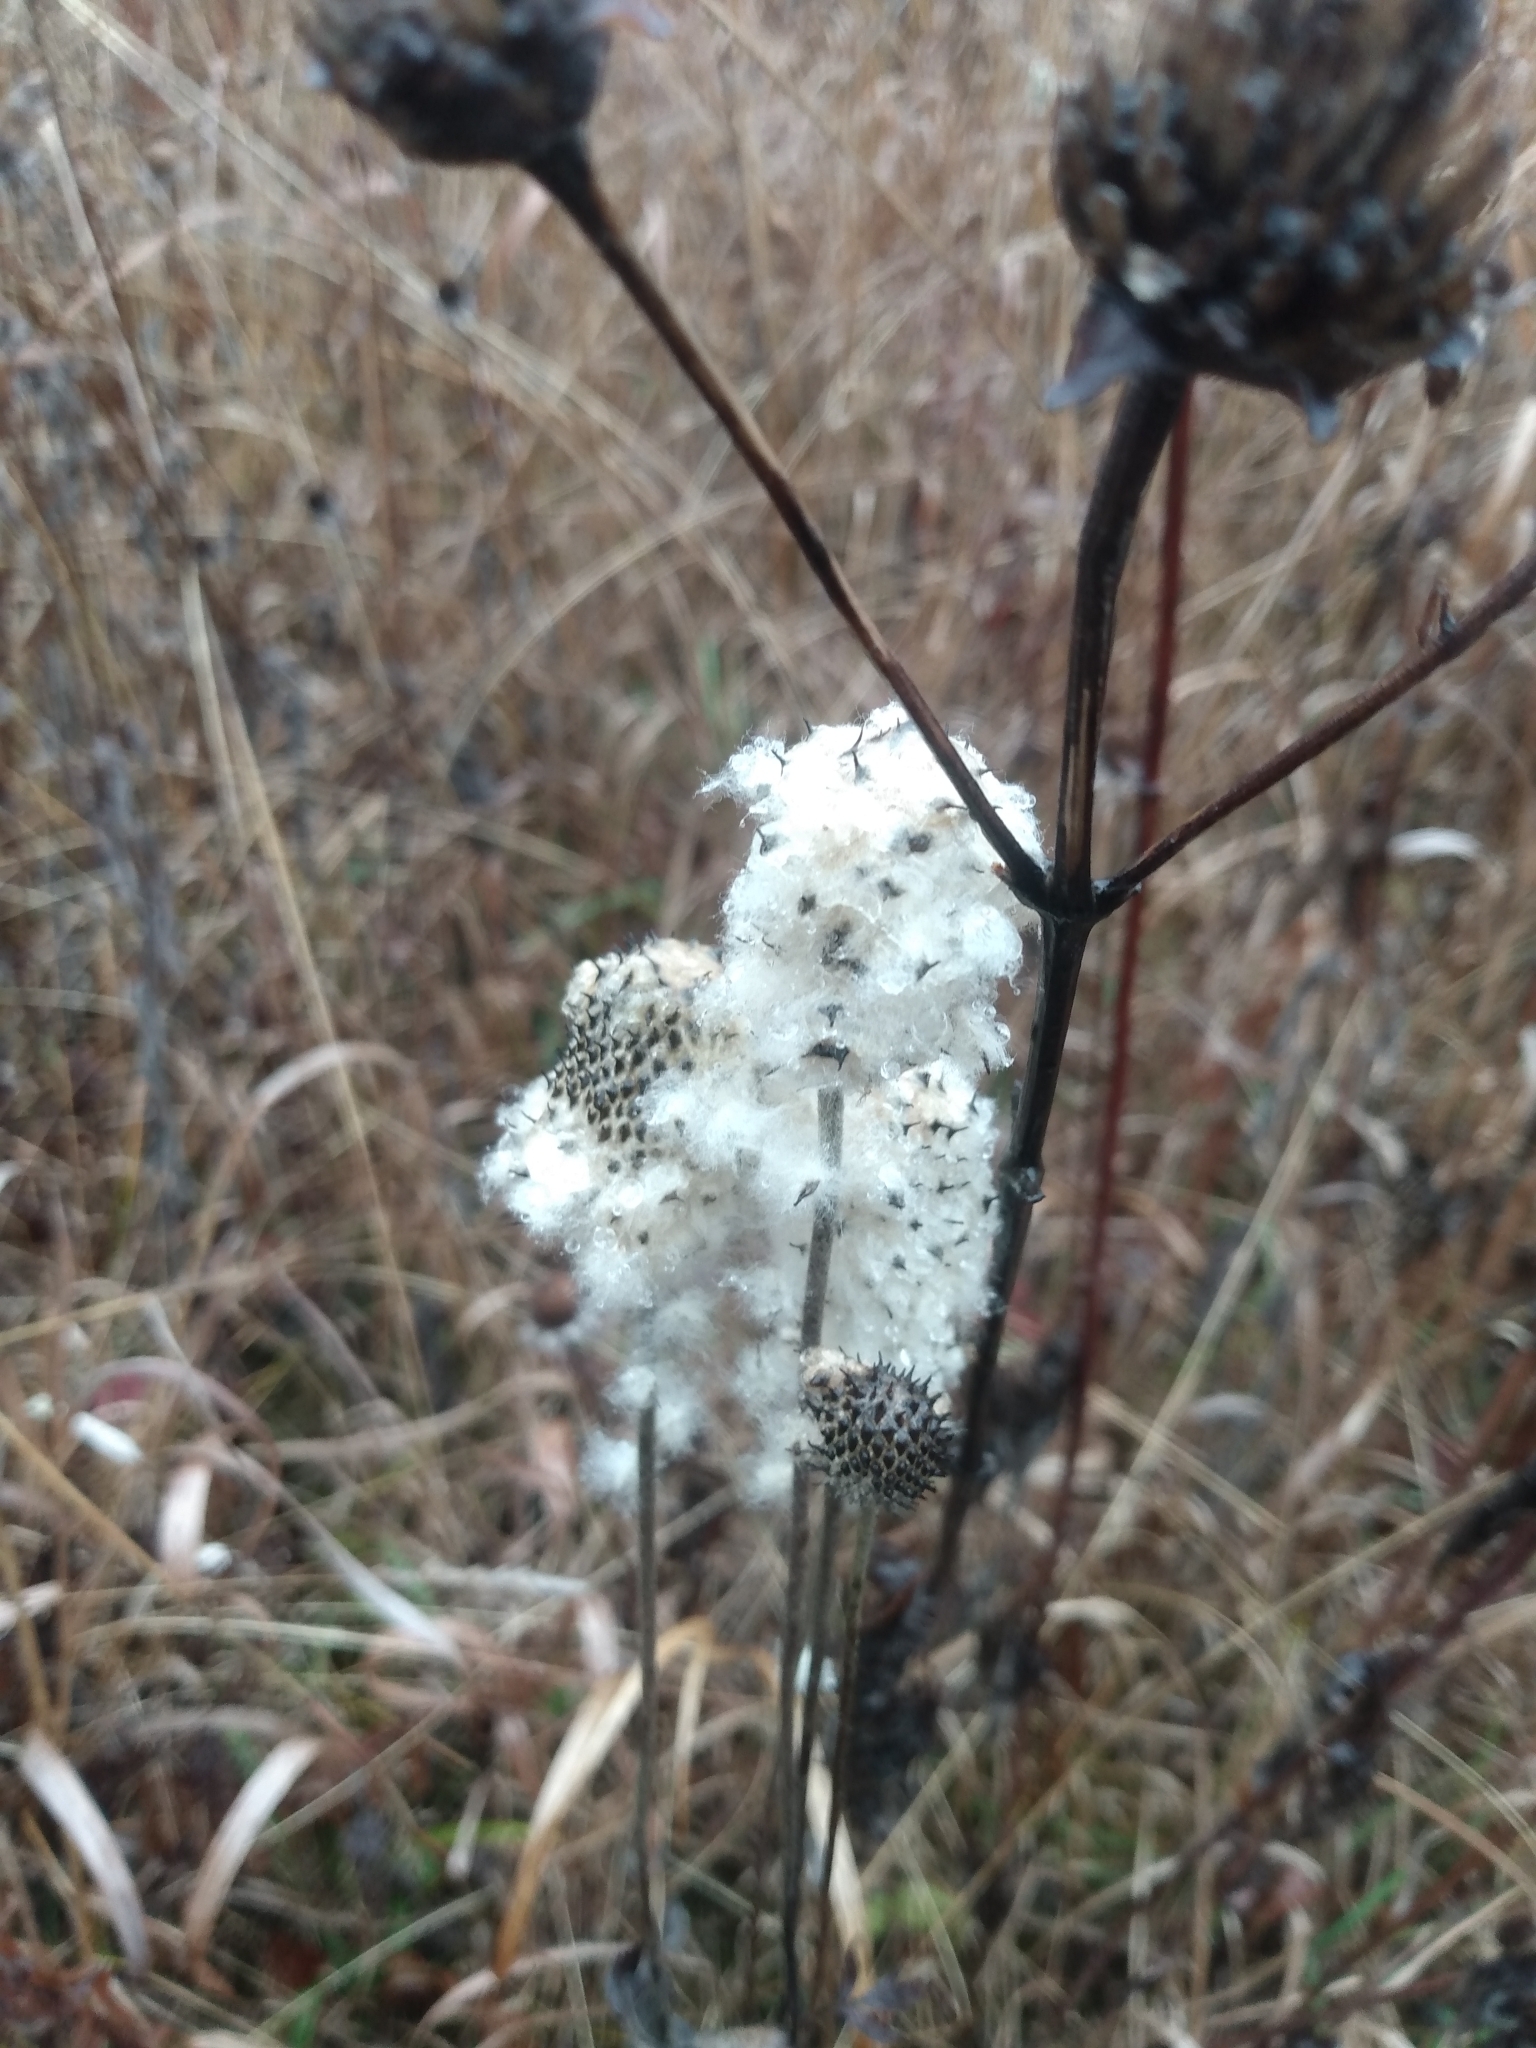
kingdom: Plantae
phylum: Tracheophyta
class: Magnoliopsida
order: Ranunculales
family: Ranunculaceae
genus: Anemone
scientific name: Anemone virginiana
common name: Tall anemone
